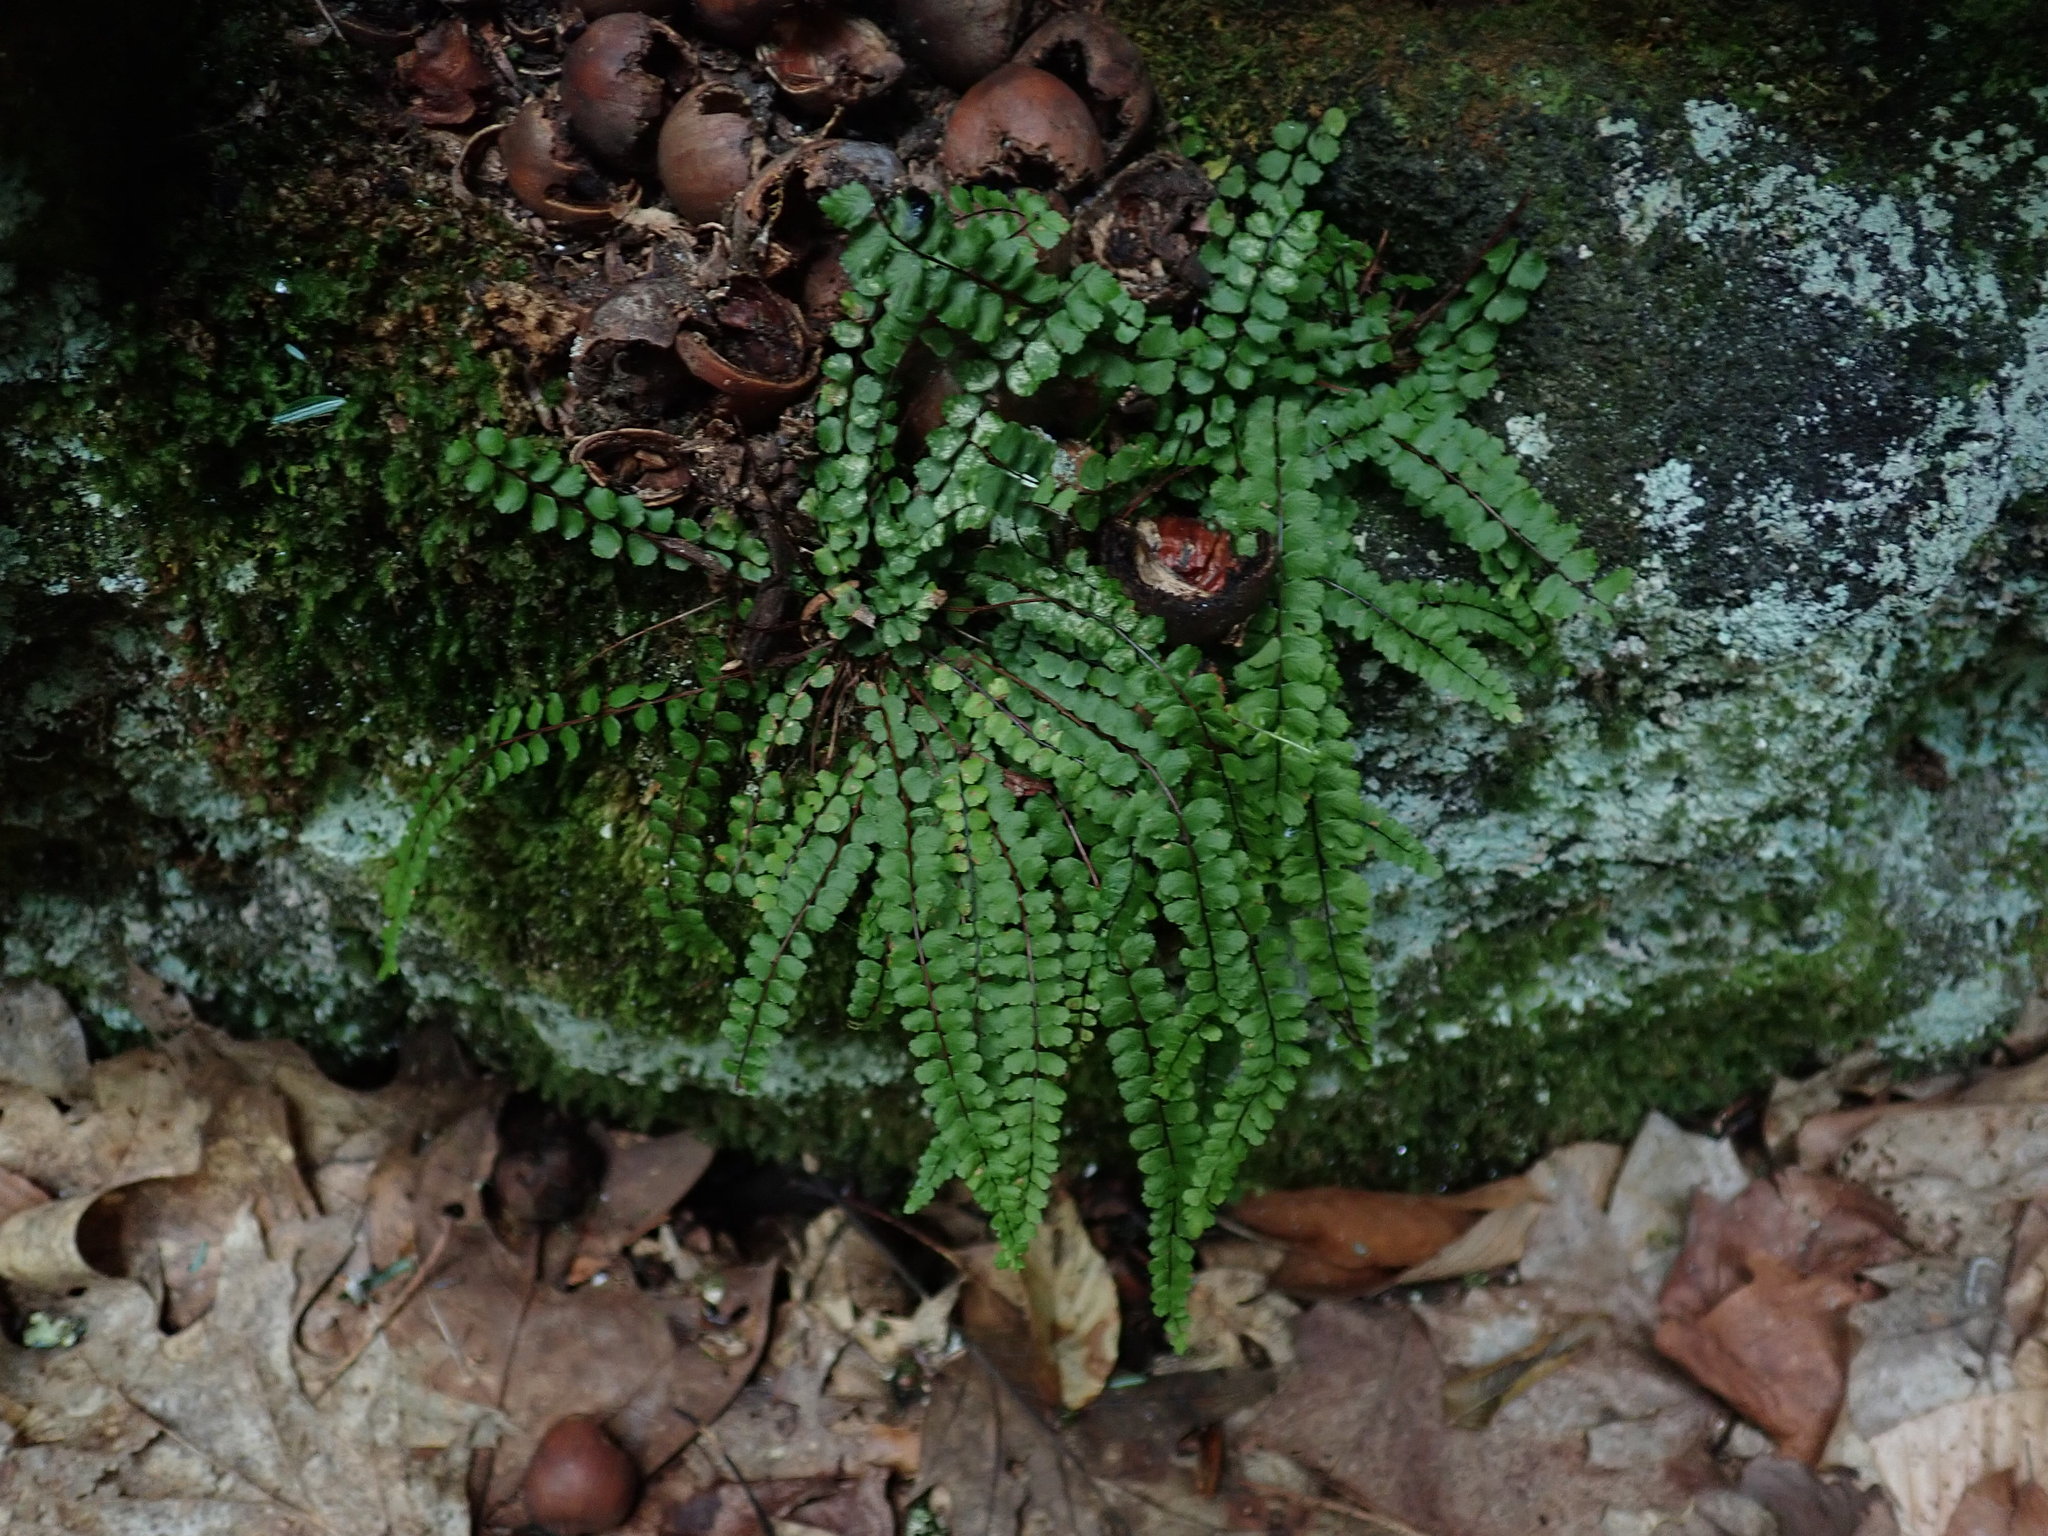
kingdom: Plantae
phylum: Tracheophyta
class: Polypodiopsida
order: Polypodiales
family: Aspleniaceae
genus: Asplenium
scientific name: Asplenium trichomanes
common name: Maidenhair spleenwort
